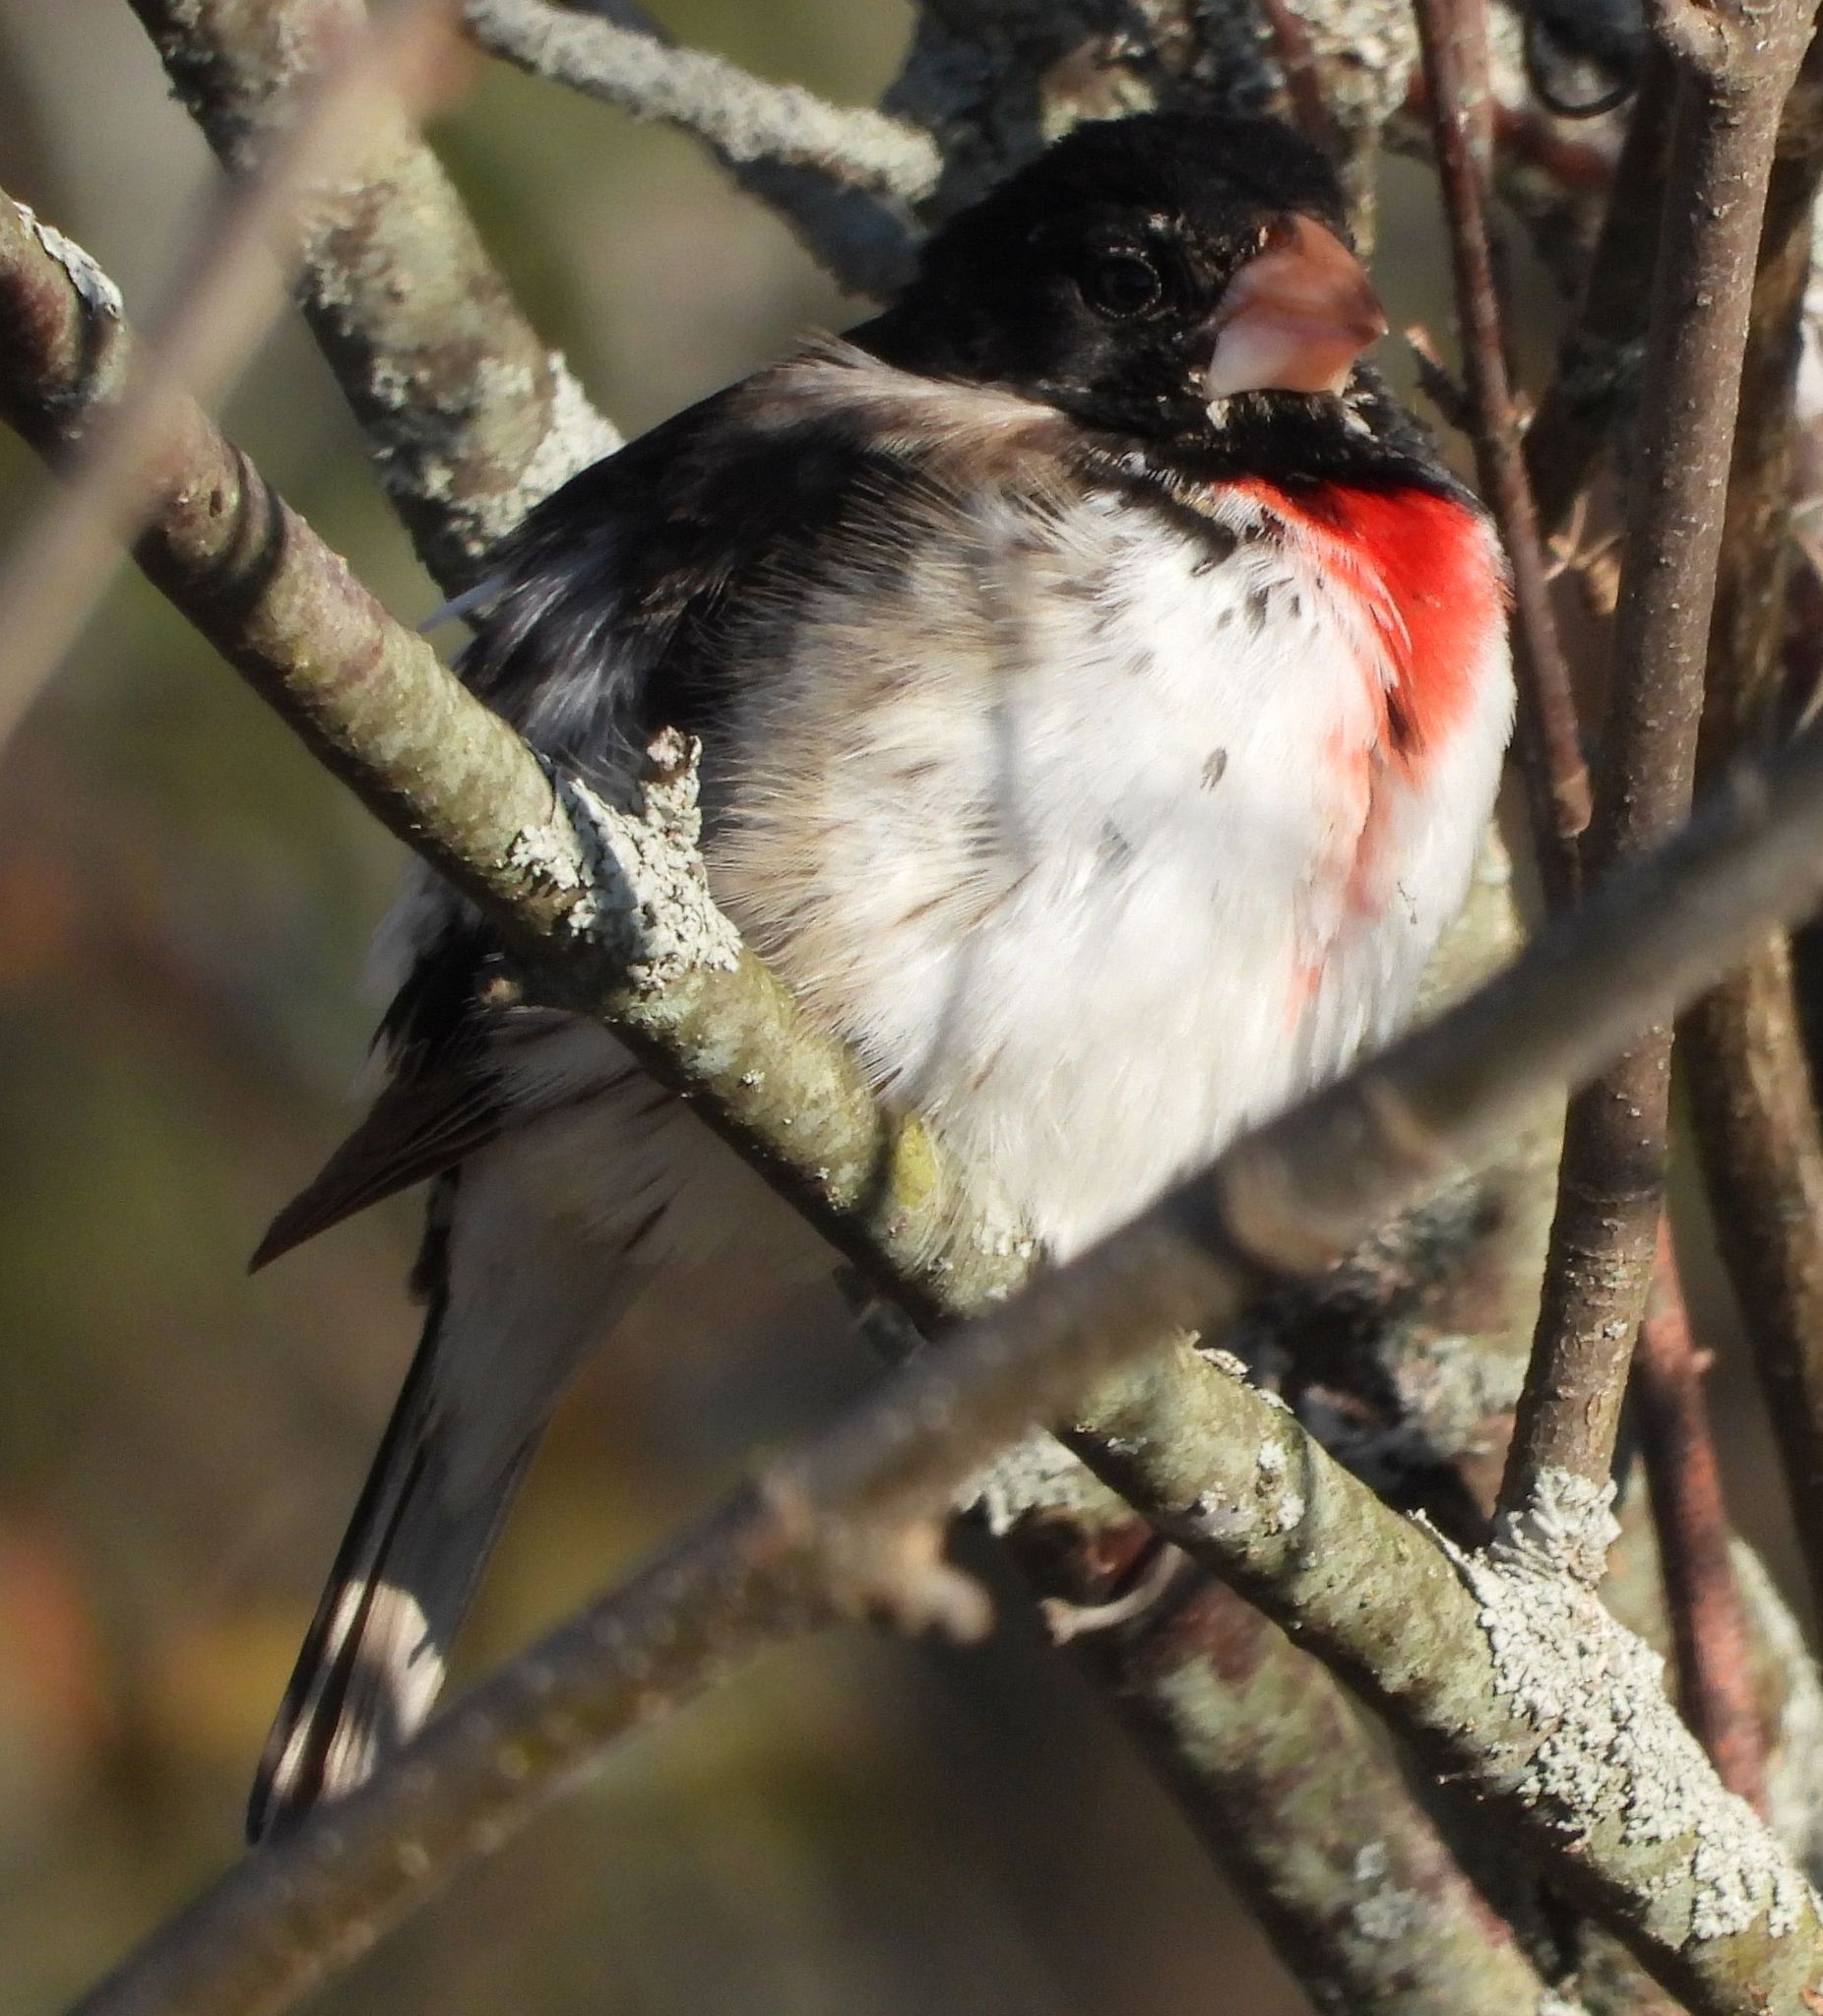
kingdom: Animalia
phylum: Chordata
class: Aves
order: Passeriformes
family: Cardinalidae
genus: Pheucticus
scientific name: Pheucticus ludovicianus
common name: Rose-breasted grosbeak
